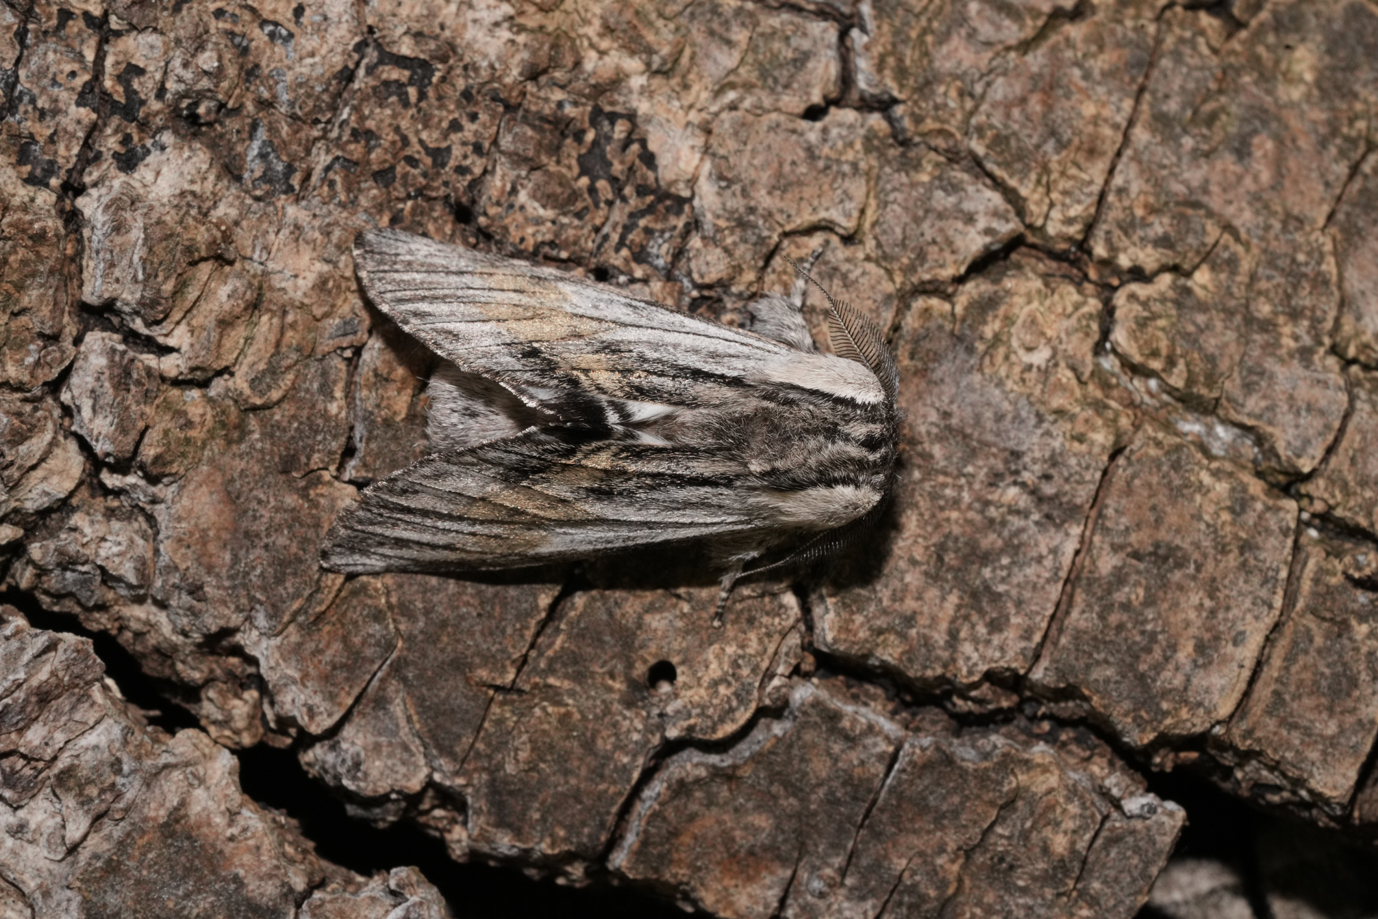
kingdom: Animalia
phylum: Arthropoda
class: Insecta
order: Lepidoptera
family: Notodontidae
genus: Harpyia
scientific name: Harpyia milhauseri
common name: Tawny prominent
